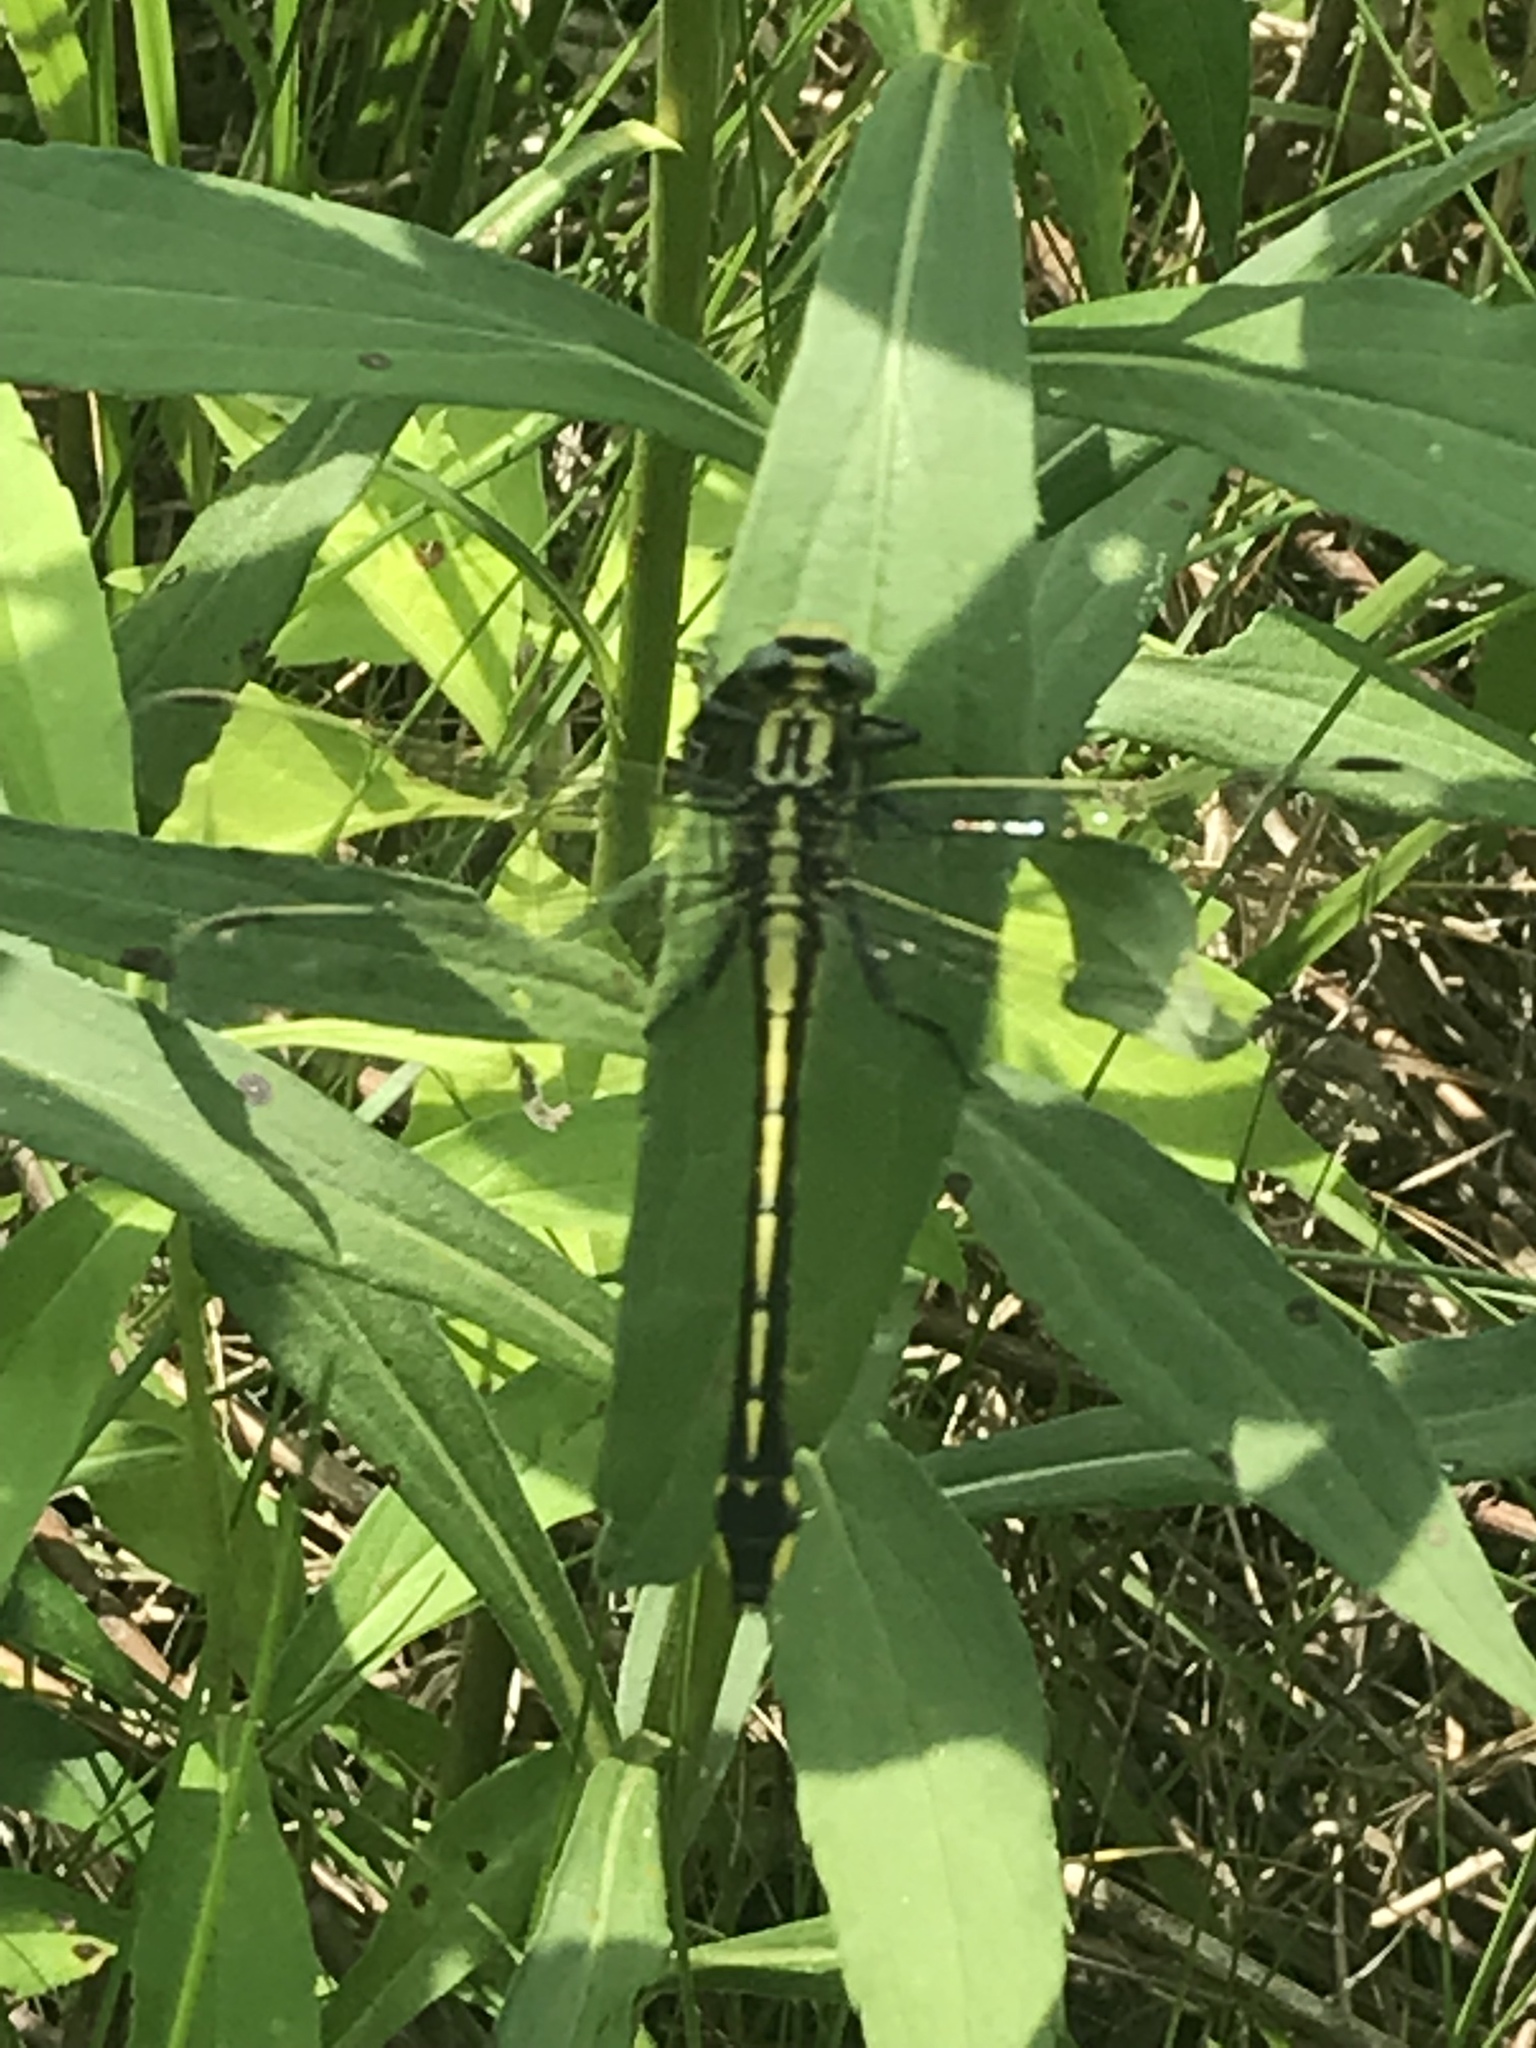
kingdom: Animalia
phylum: Arthropoda
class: Insecta
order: Odonata
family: Gomphidae
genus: Gomphurus
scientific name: Gomphurus fraternus
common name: Midland clubtail
